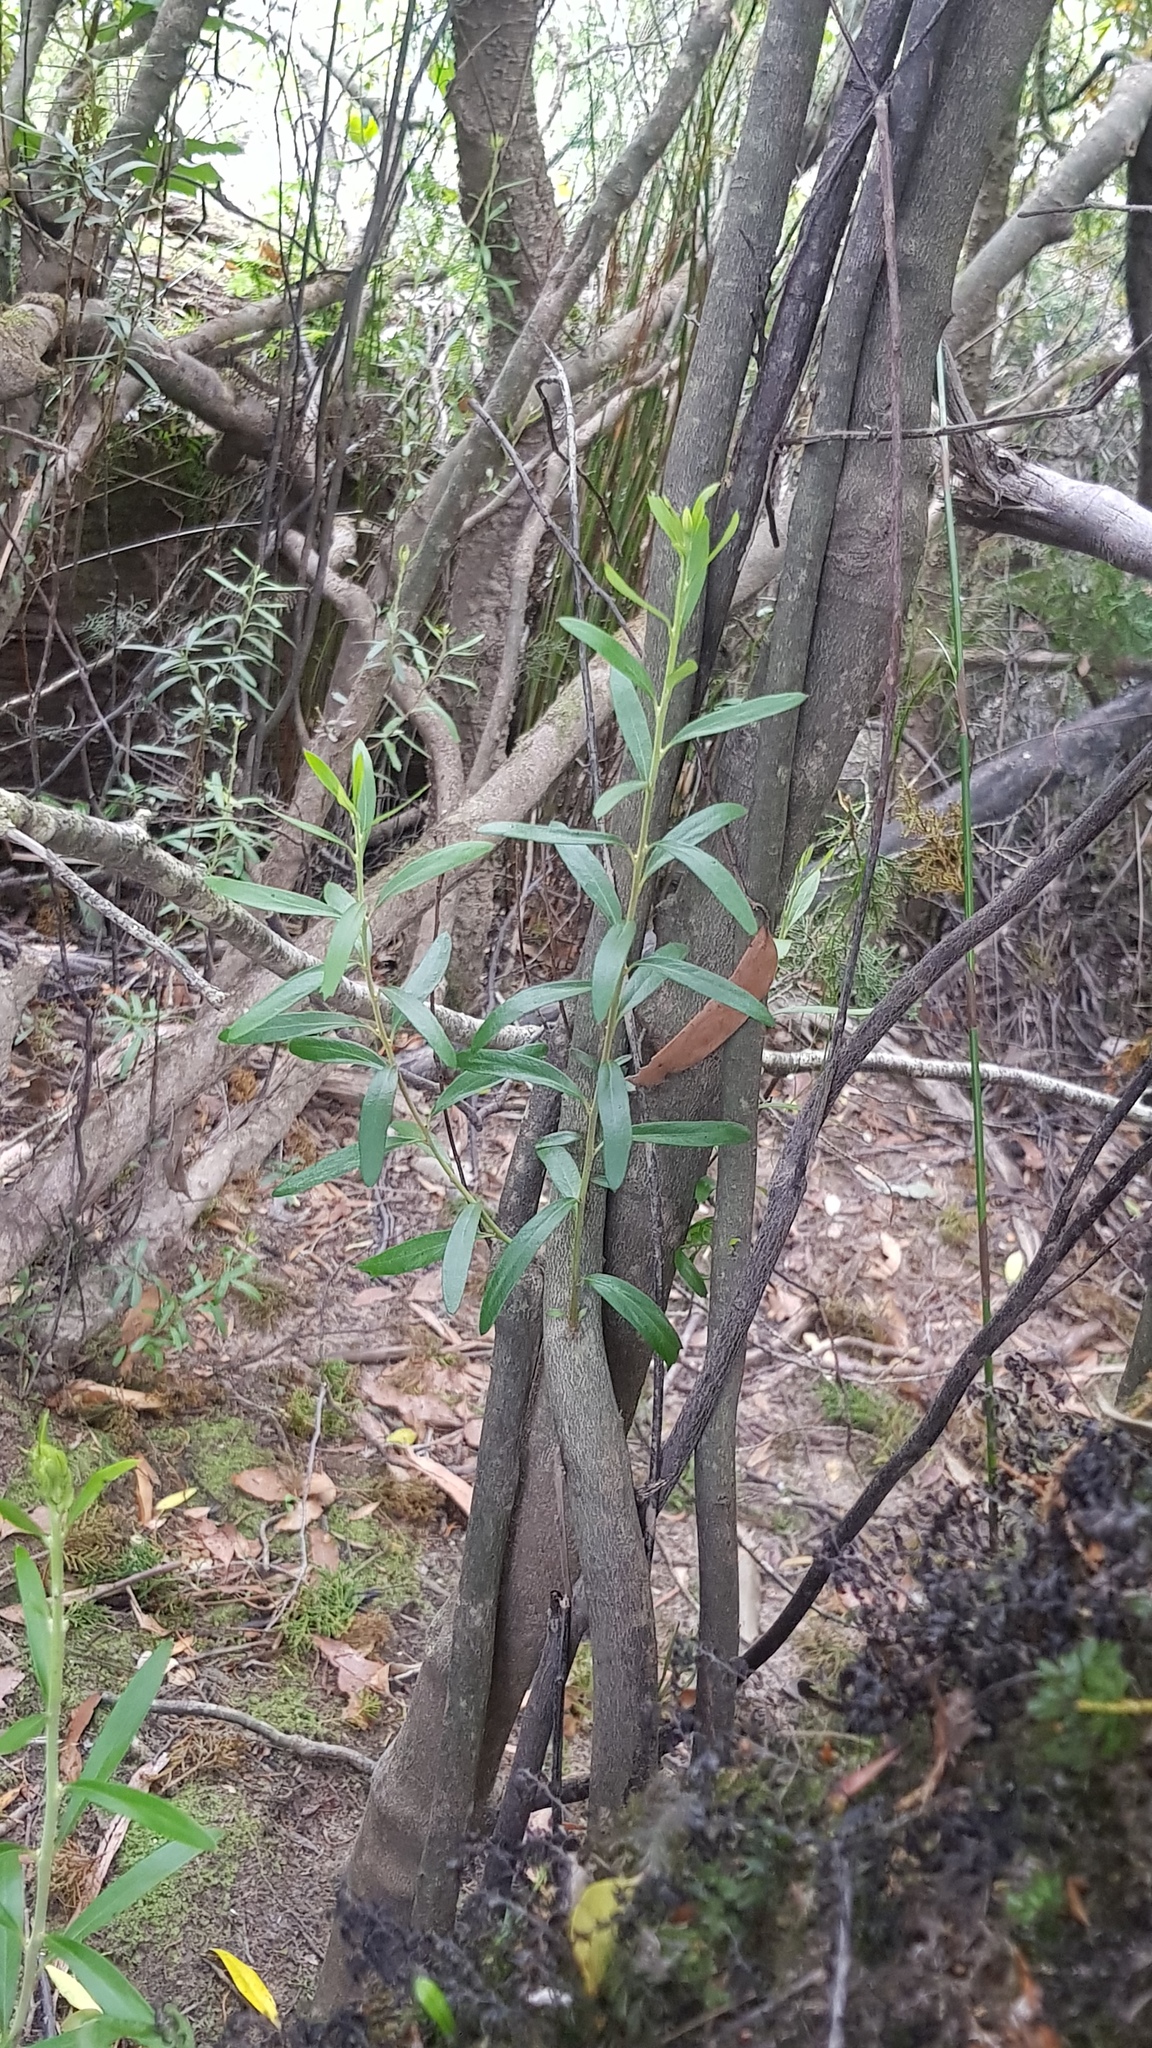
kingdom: Plantae
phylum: Tracheophyta
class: Magnoliopsida
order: Apiales
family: Pittosporaceae
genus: Pittosporum
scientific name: Pittosporum bicolor
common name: Tallowwood
